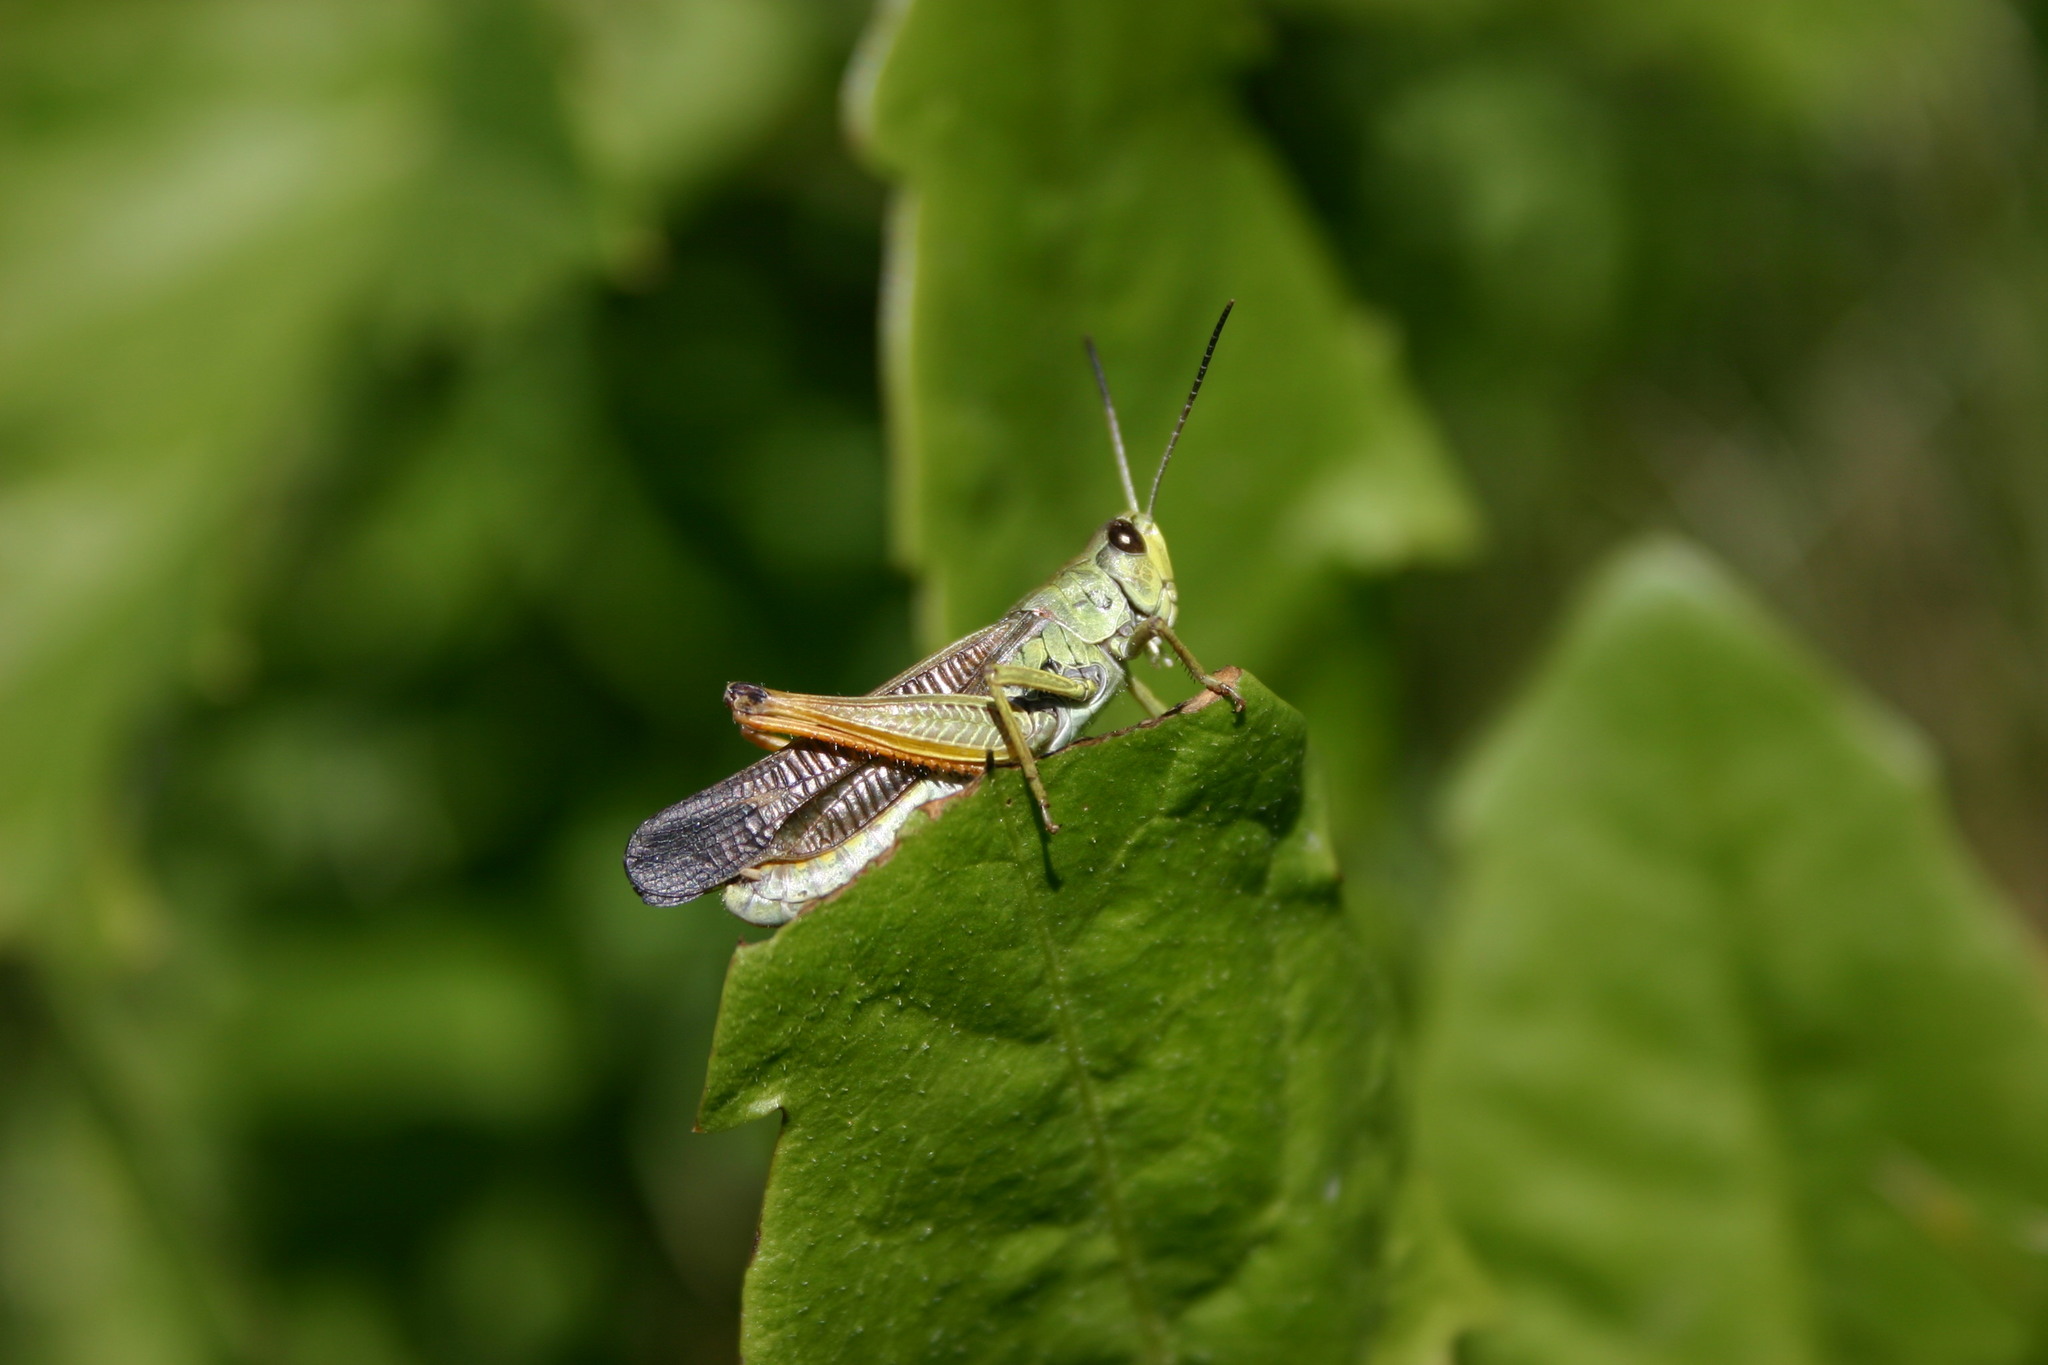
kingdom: Animalia
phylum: Arthropoda
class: Insecta
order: Orthoptera
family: Acrididae
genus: Stauroderus
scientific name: Stauroderus scalaris
